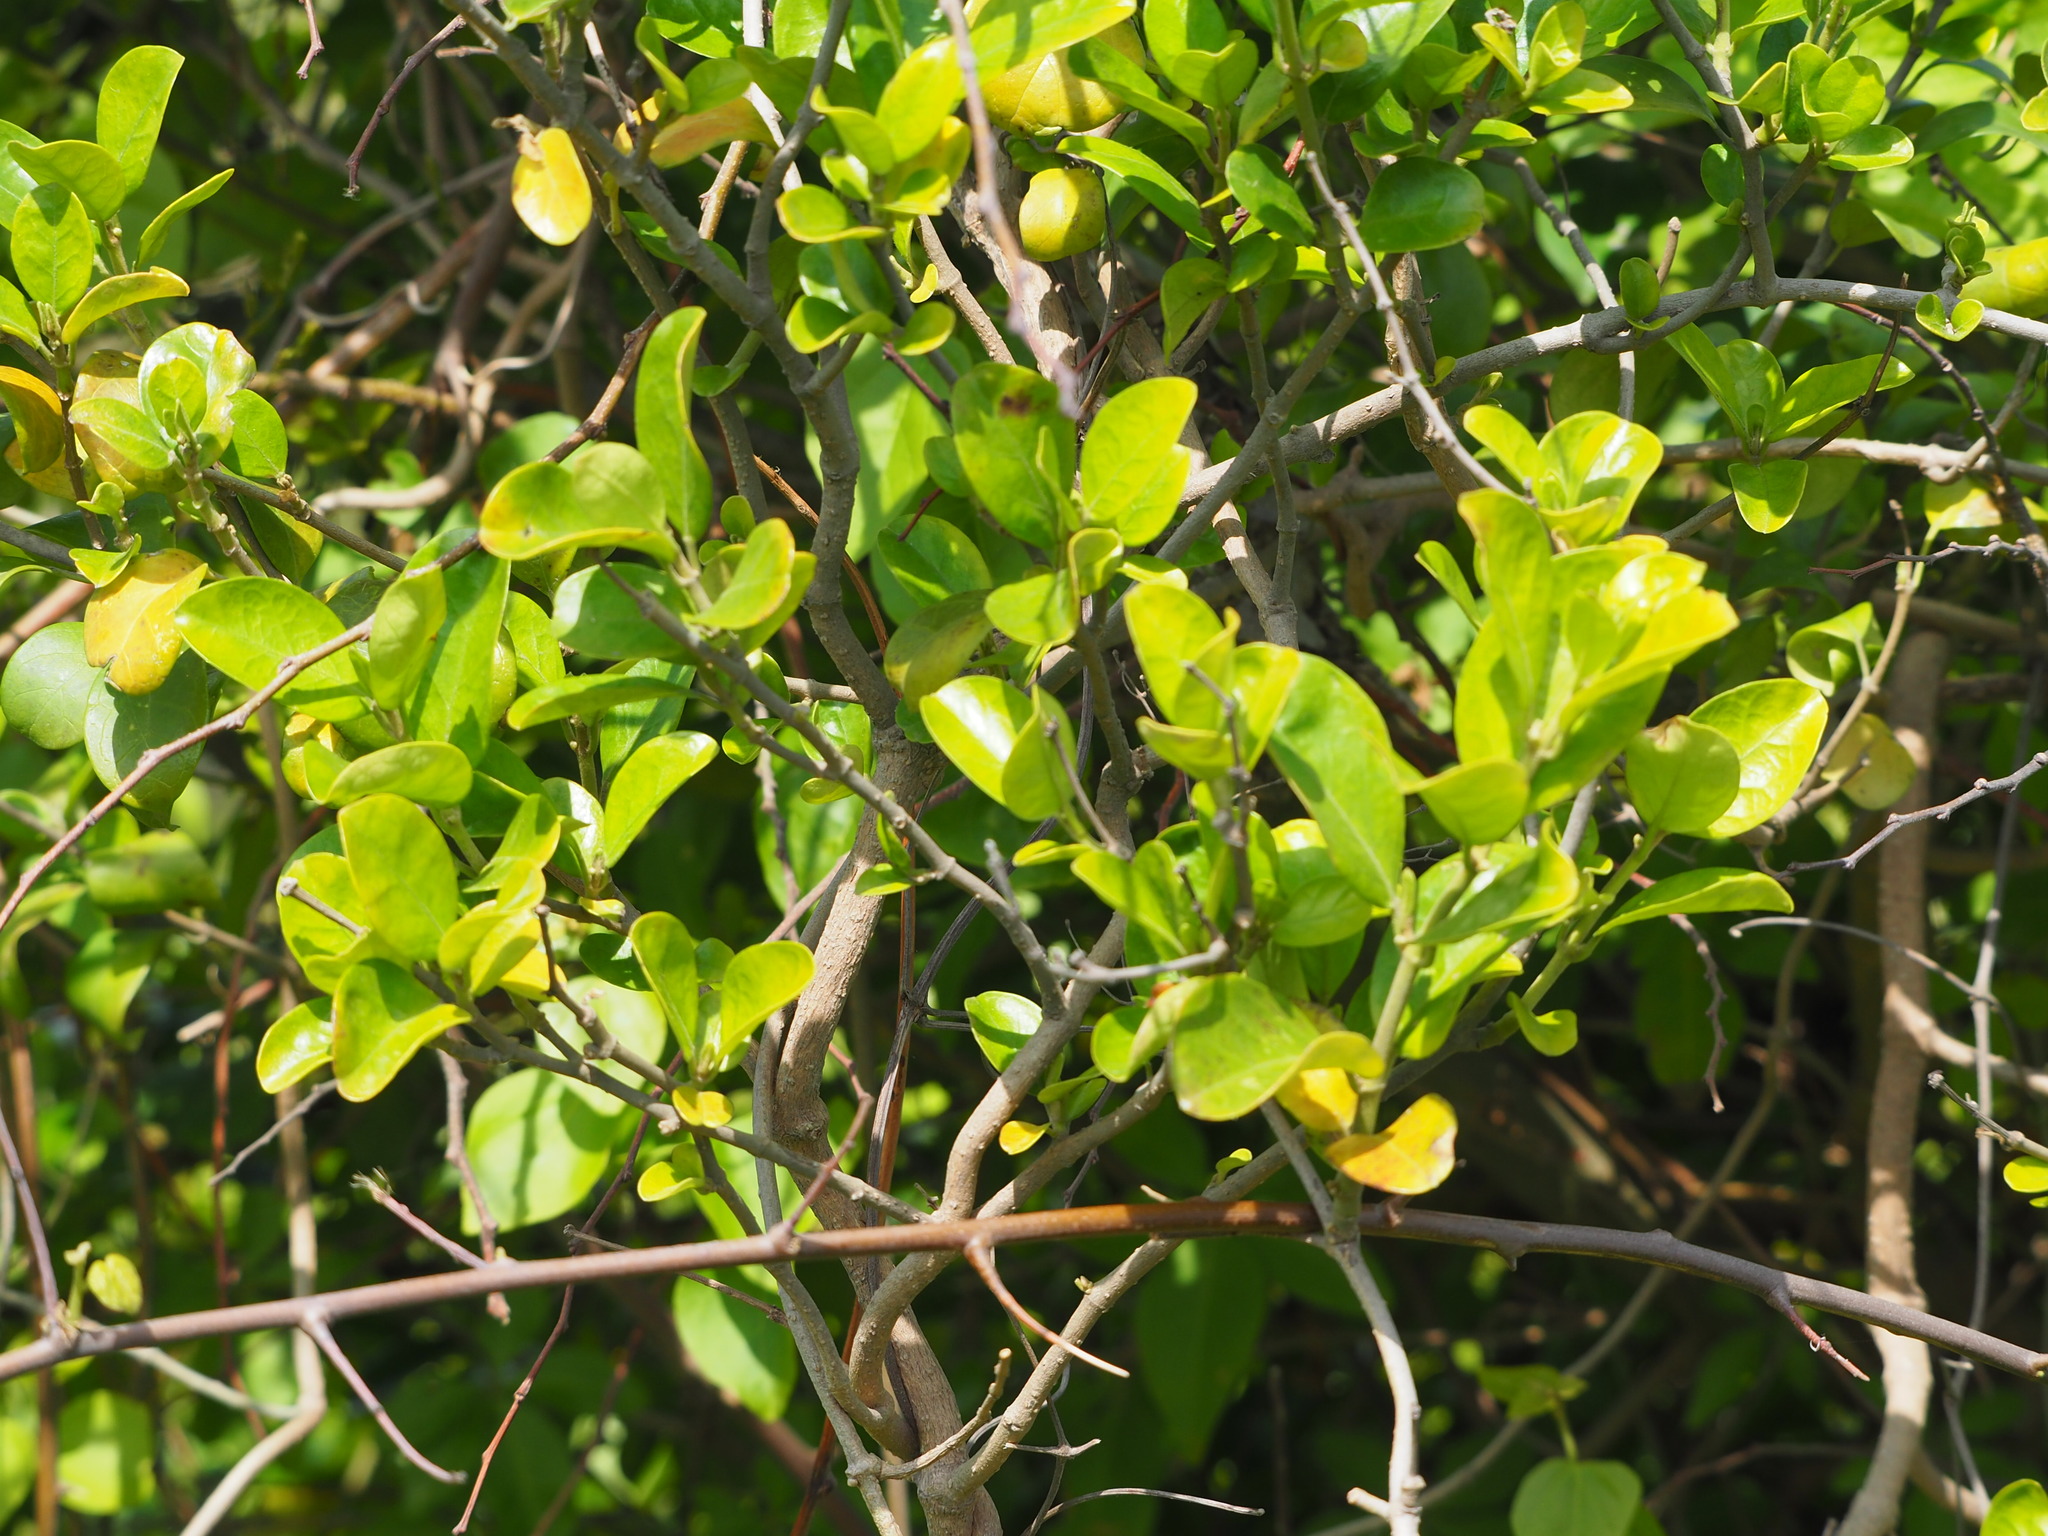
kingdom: Plantae
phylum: Tracheophyta
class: Magnoliopsida
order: Gentianales
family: Apocynaceae
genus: Gymnema
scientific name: Gymnema sylvestre
